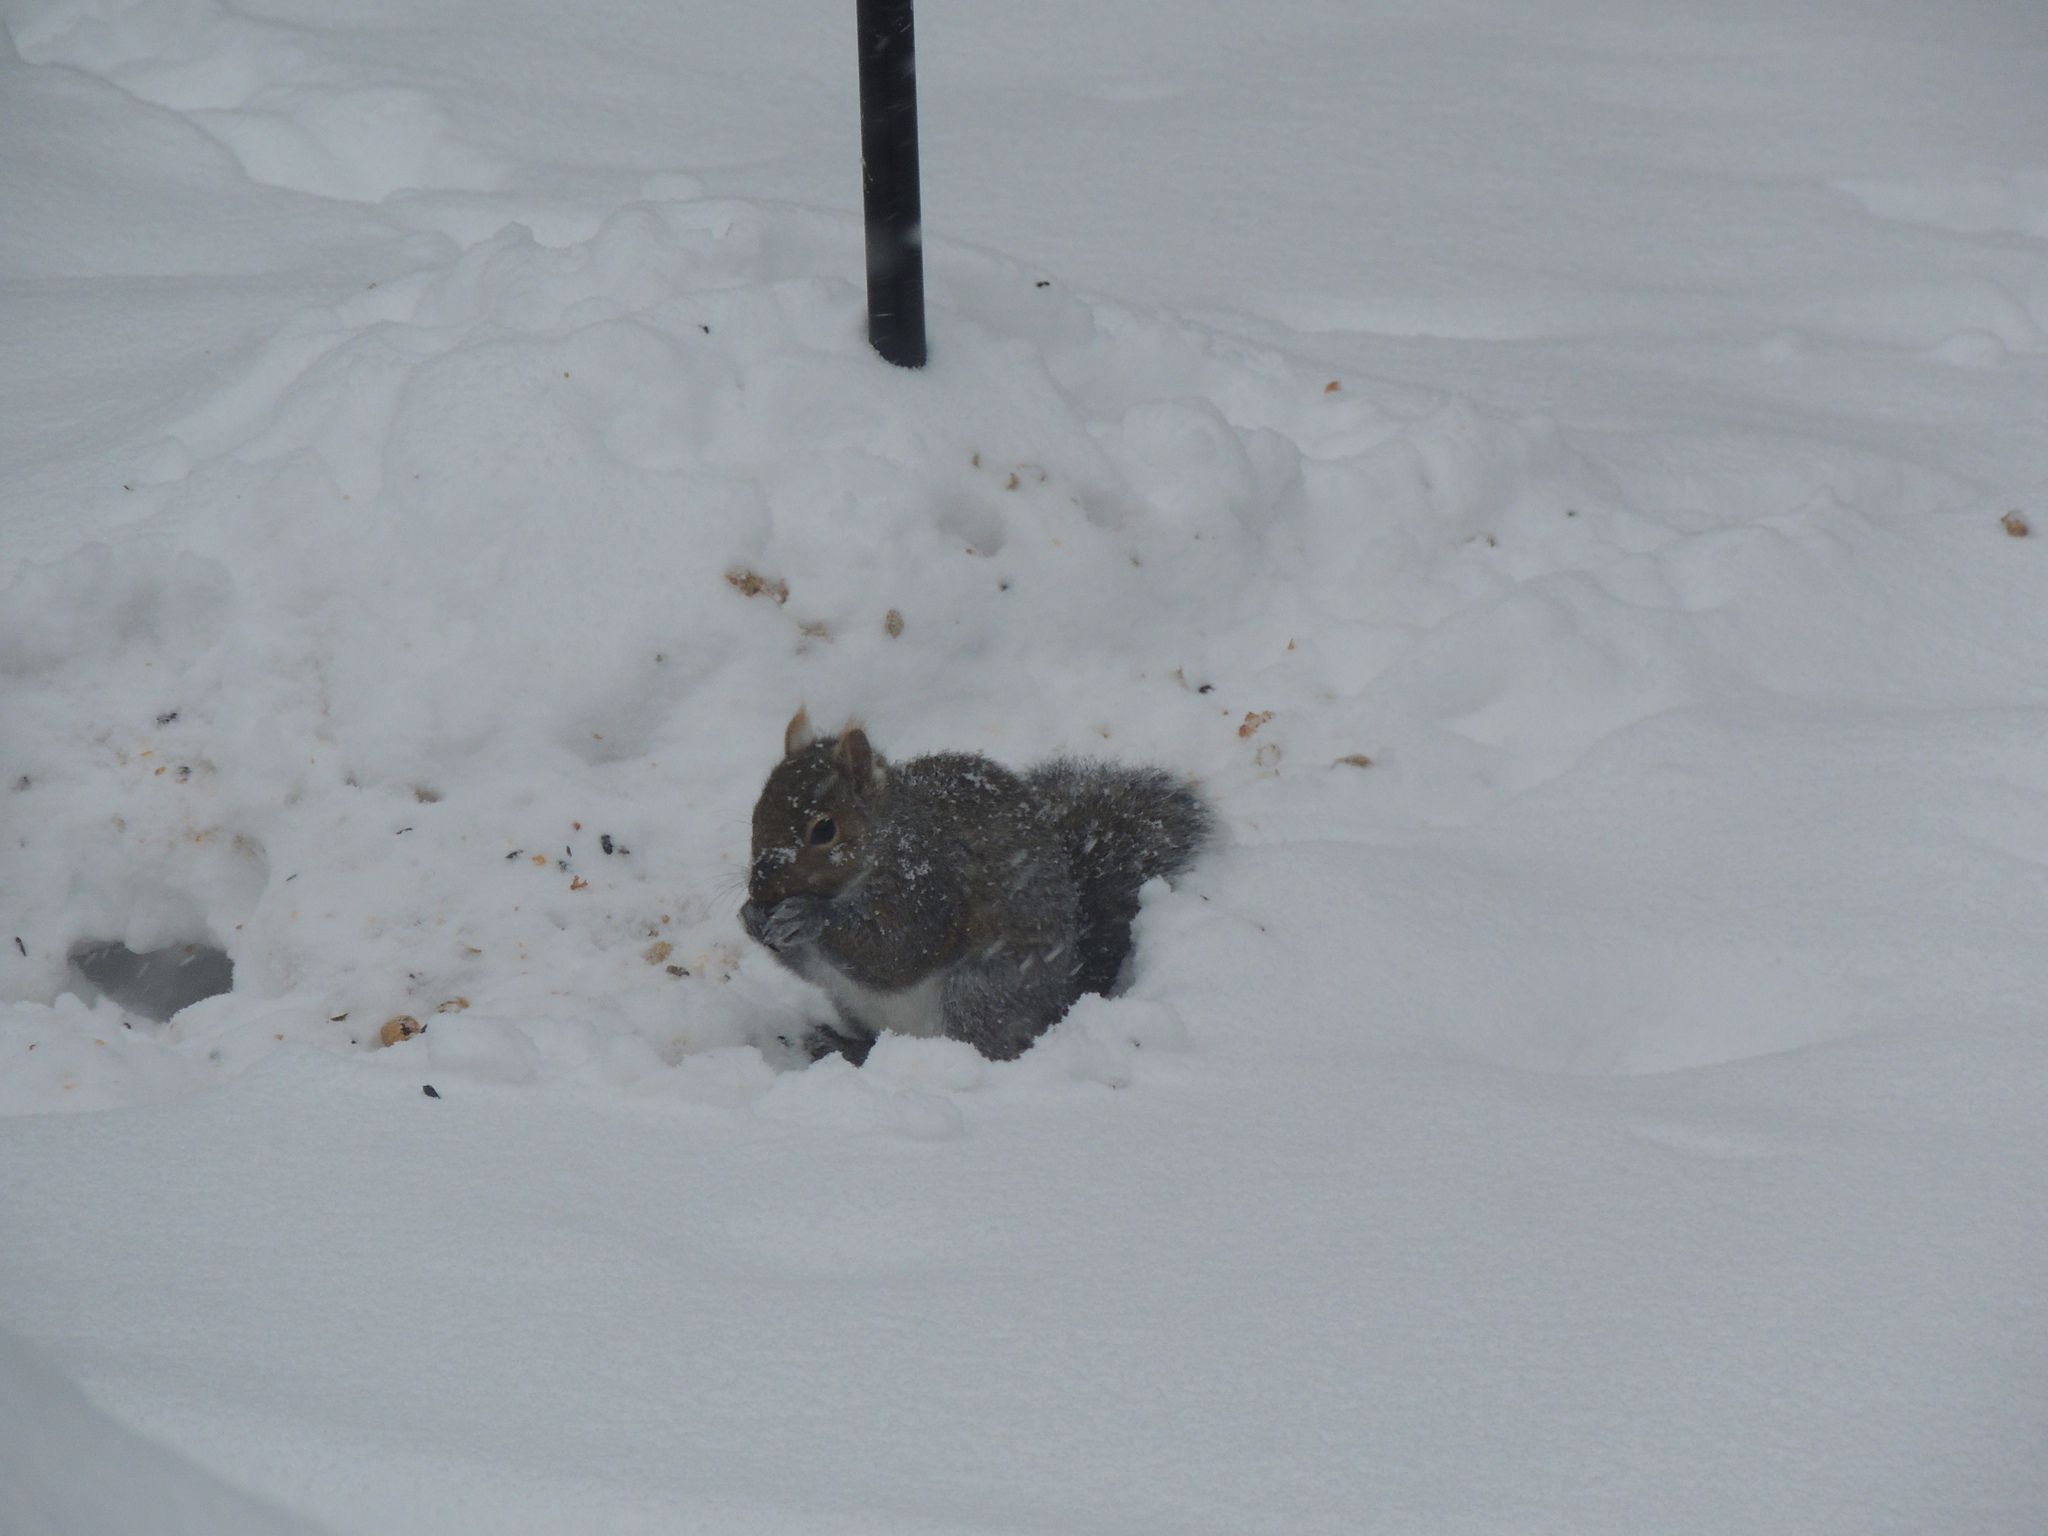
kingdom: Animalia
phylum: Chordata
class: Mammalia
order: Rodentia
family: Sciuridae
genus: Sciurus
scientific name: Sciurus carolinensis
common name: Eastern gray squirrel
